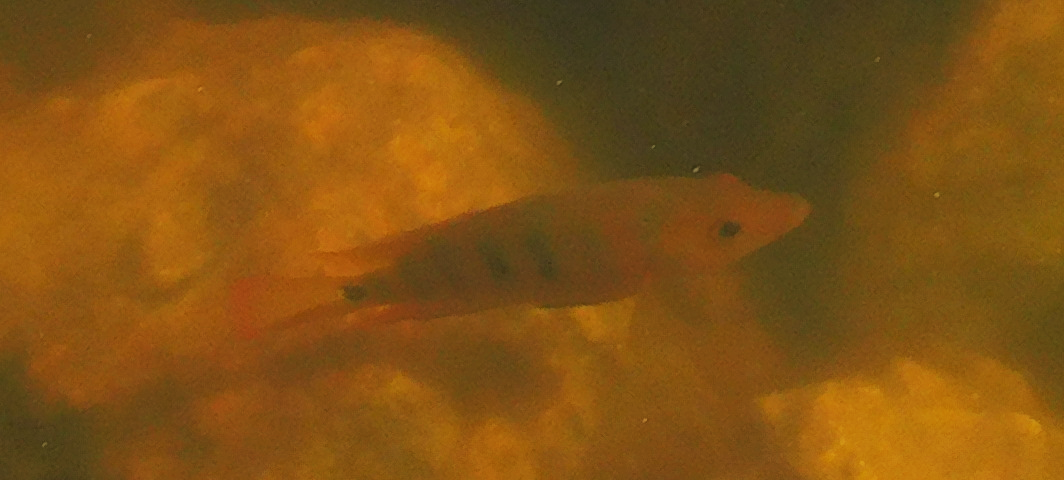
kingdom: Animalia
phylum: Chordata
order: Perciformes
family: Cichlidae
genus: Mayaheros
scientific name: Mayaheros urophthalmus
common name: Mayan cichlid
